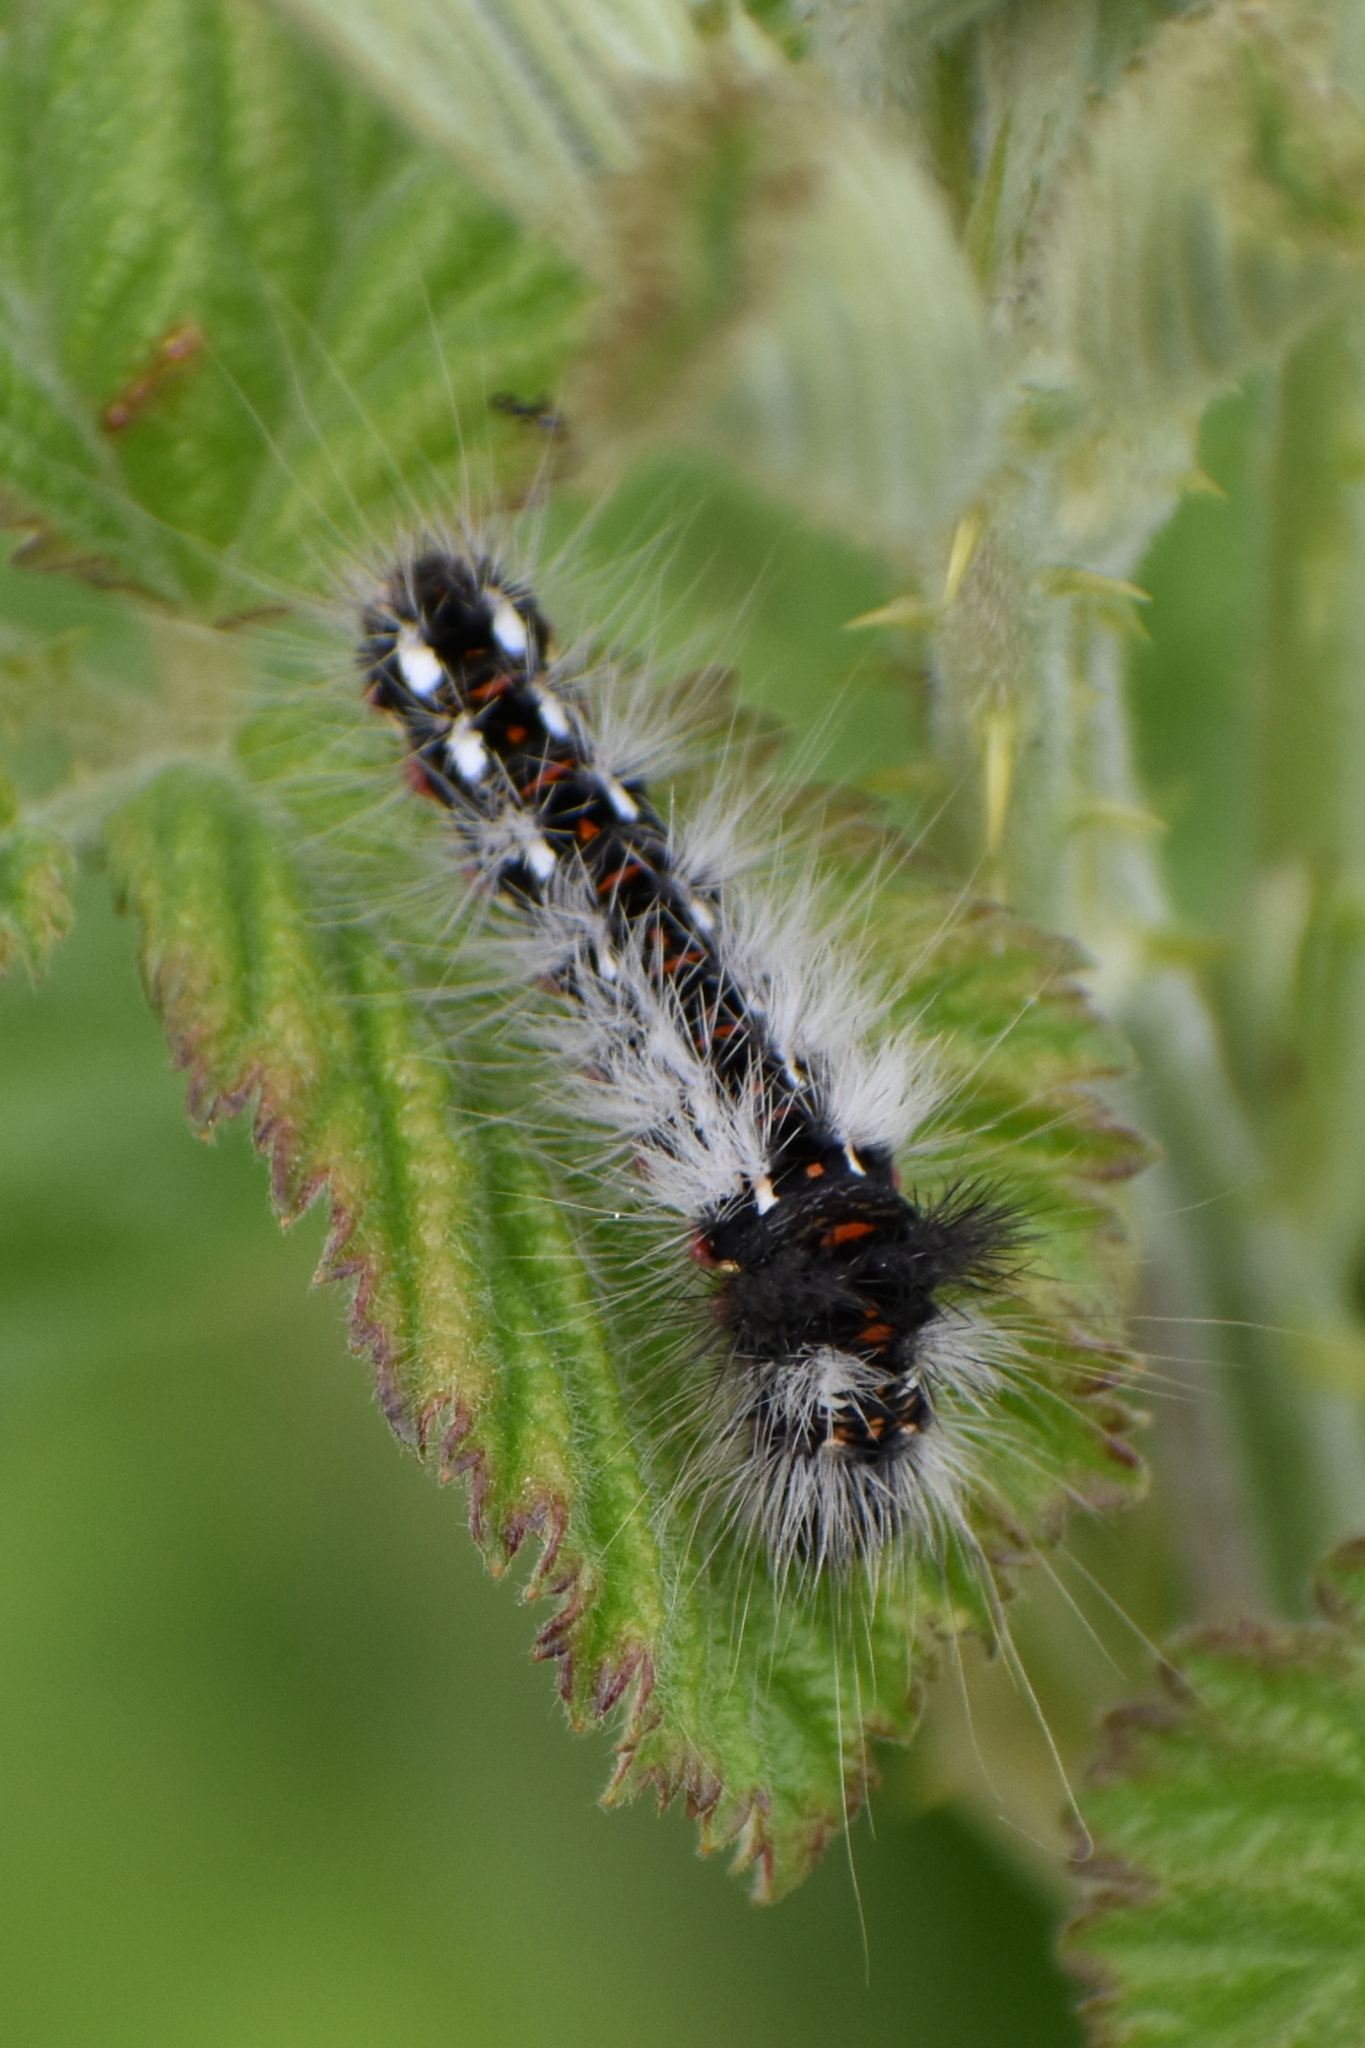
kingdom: Animalia
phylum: Arthropoda
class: Insecta
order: Lepidoptera
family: Noctuidae
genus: Acronicta
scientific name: Acronicta rumicis
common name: Knot grass
